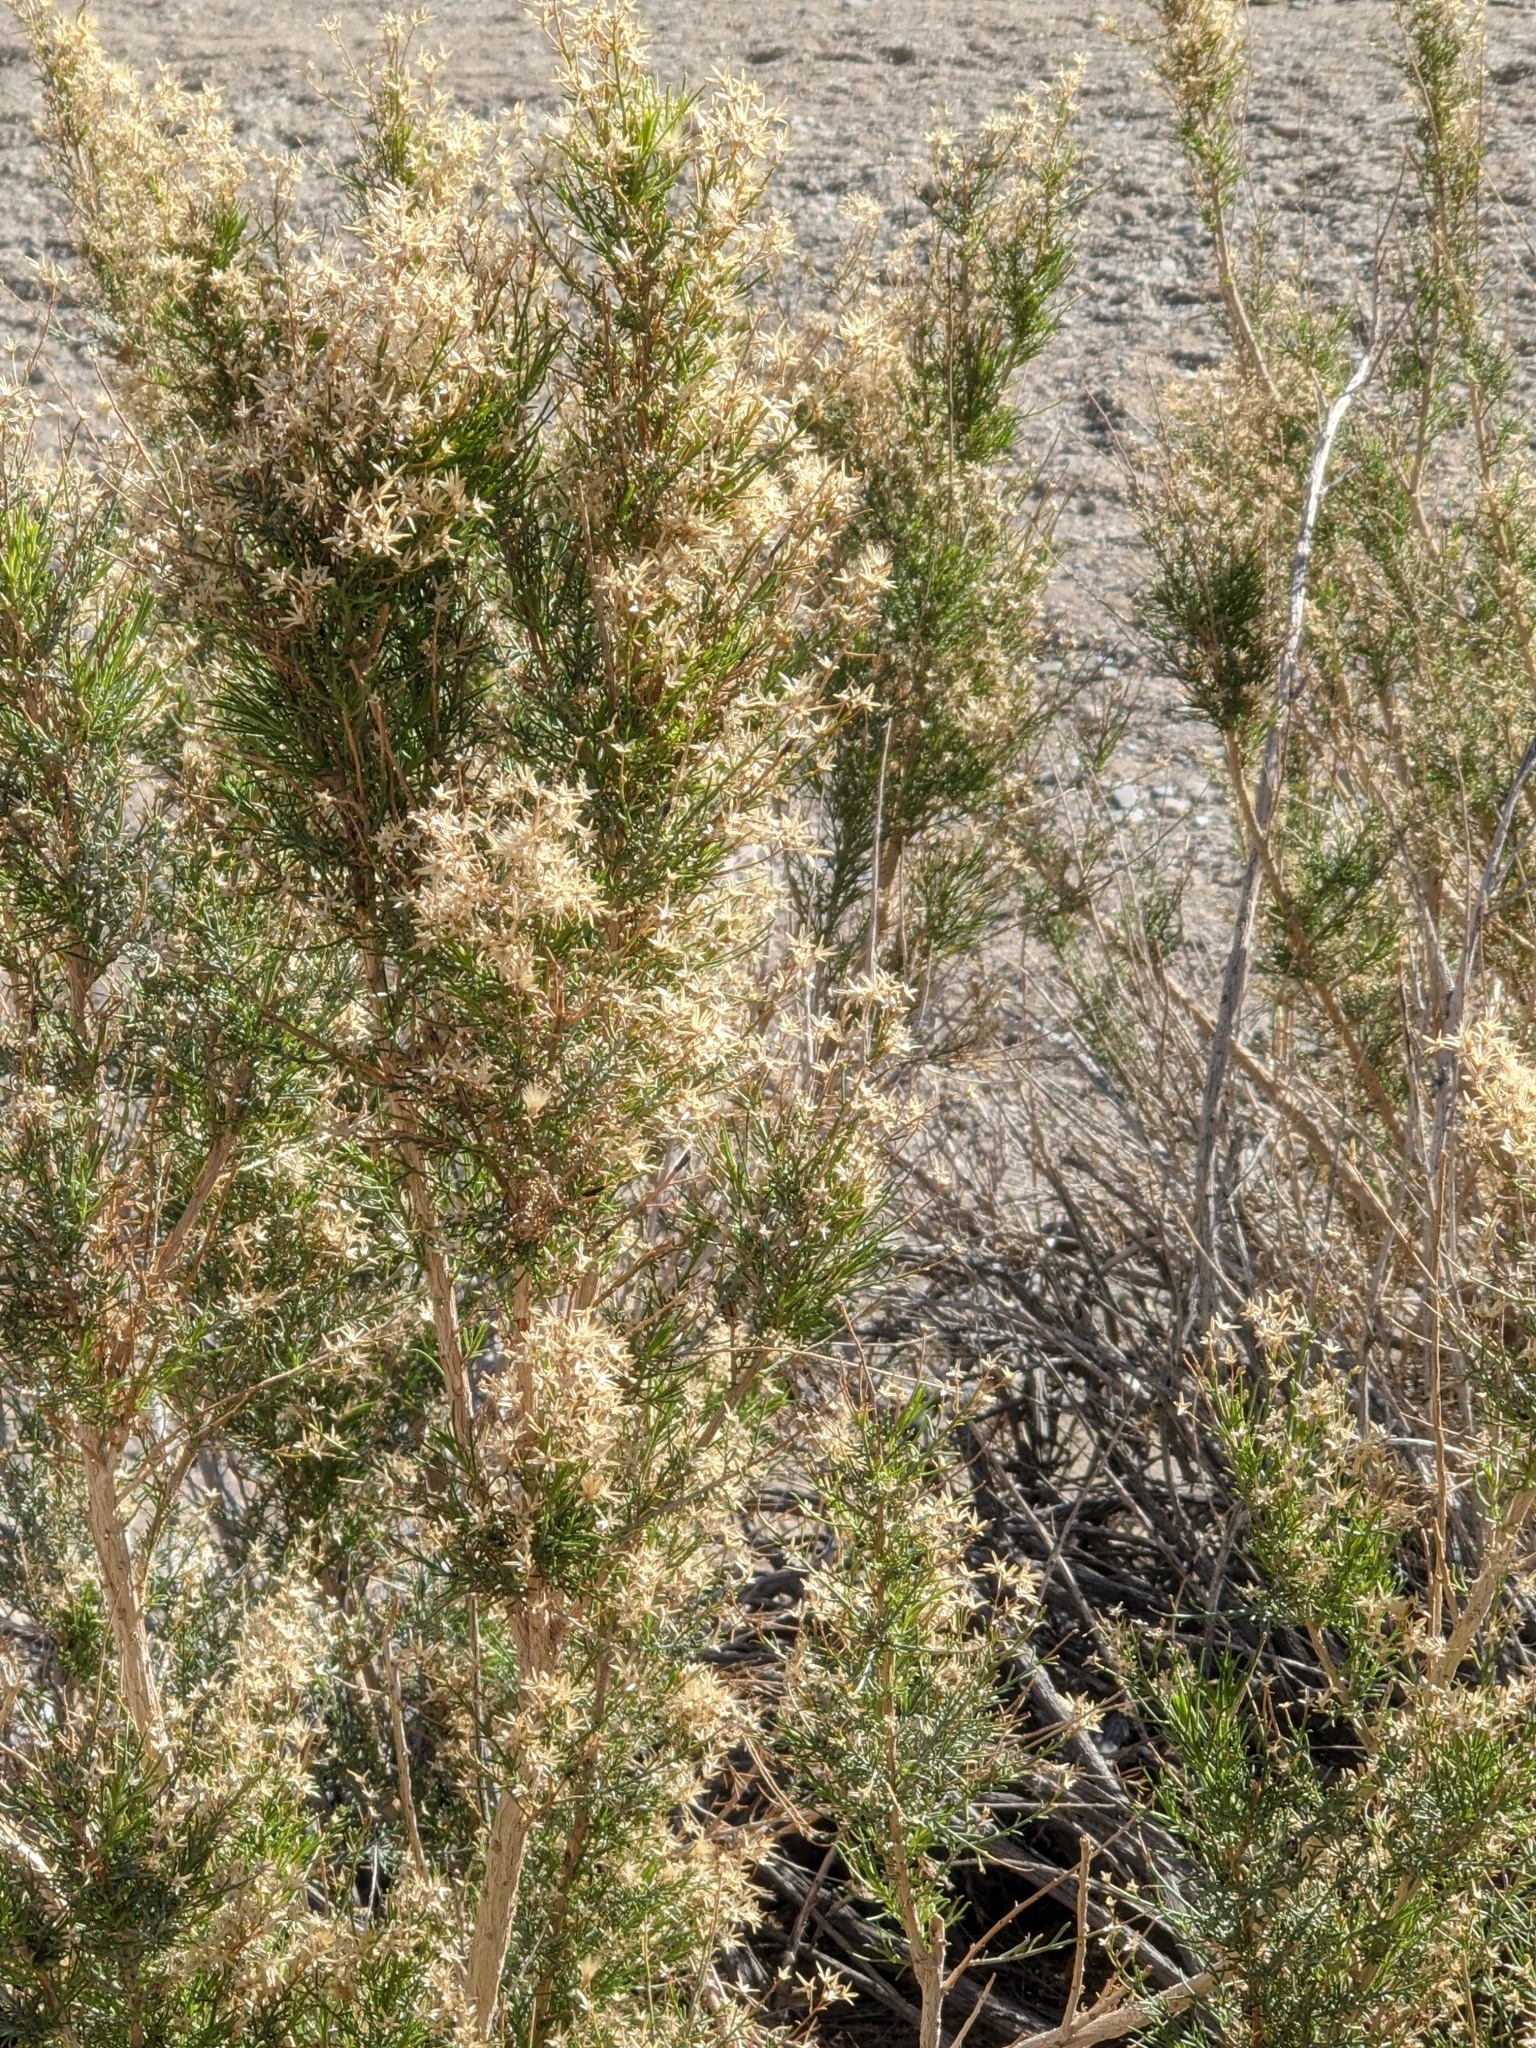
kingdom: Plantae
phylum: Tracheophyta
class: Magnoliopsida
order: Asterales
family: Asteraceae
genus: Ericameria
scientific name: Ericameria paniculata
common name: Punctate rabbitbrush
